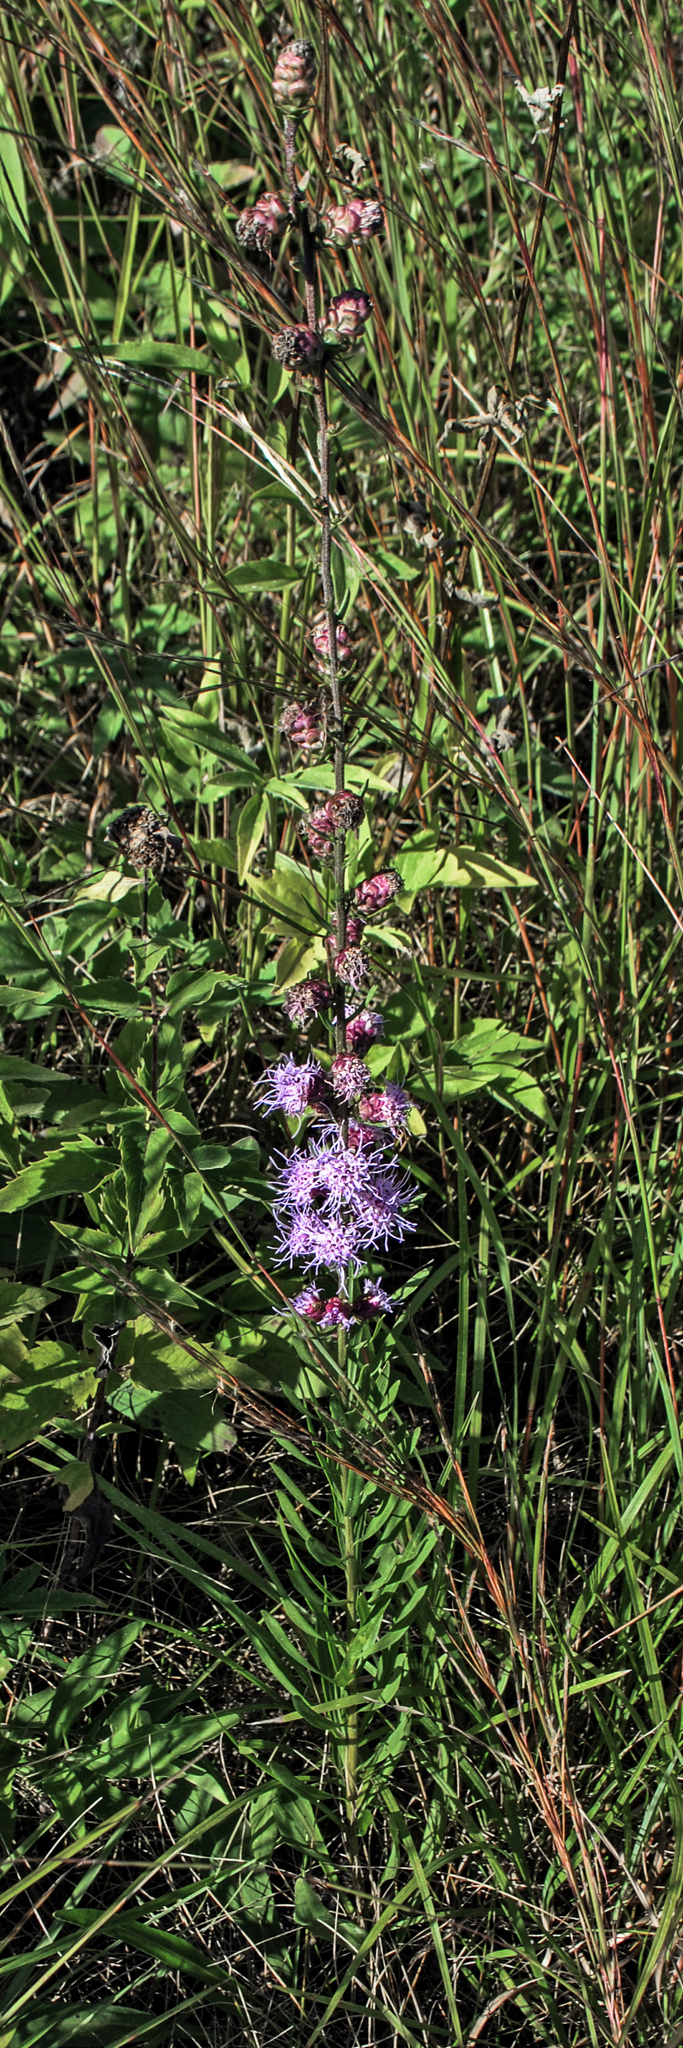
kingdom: Plantae
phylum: Tracheophyta
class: Magnoliopsida
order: Asterales
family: Asteraceae
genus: Liatris
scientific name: Liatris aspera
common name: Lacerate blazing-star
